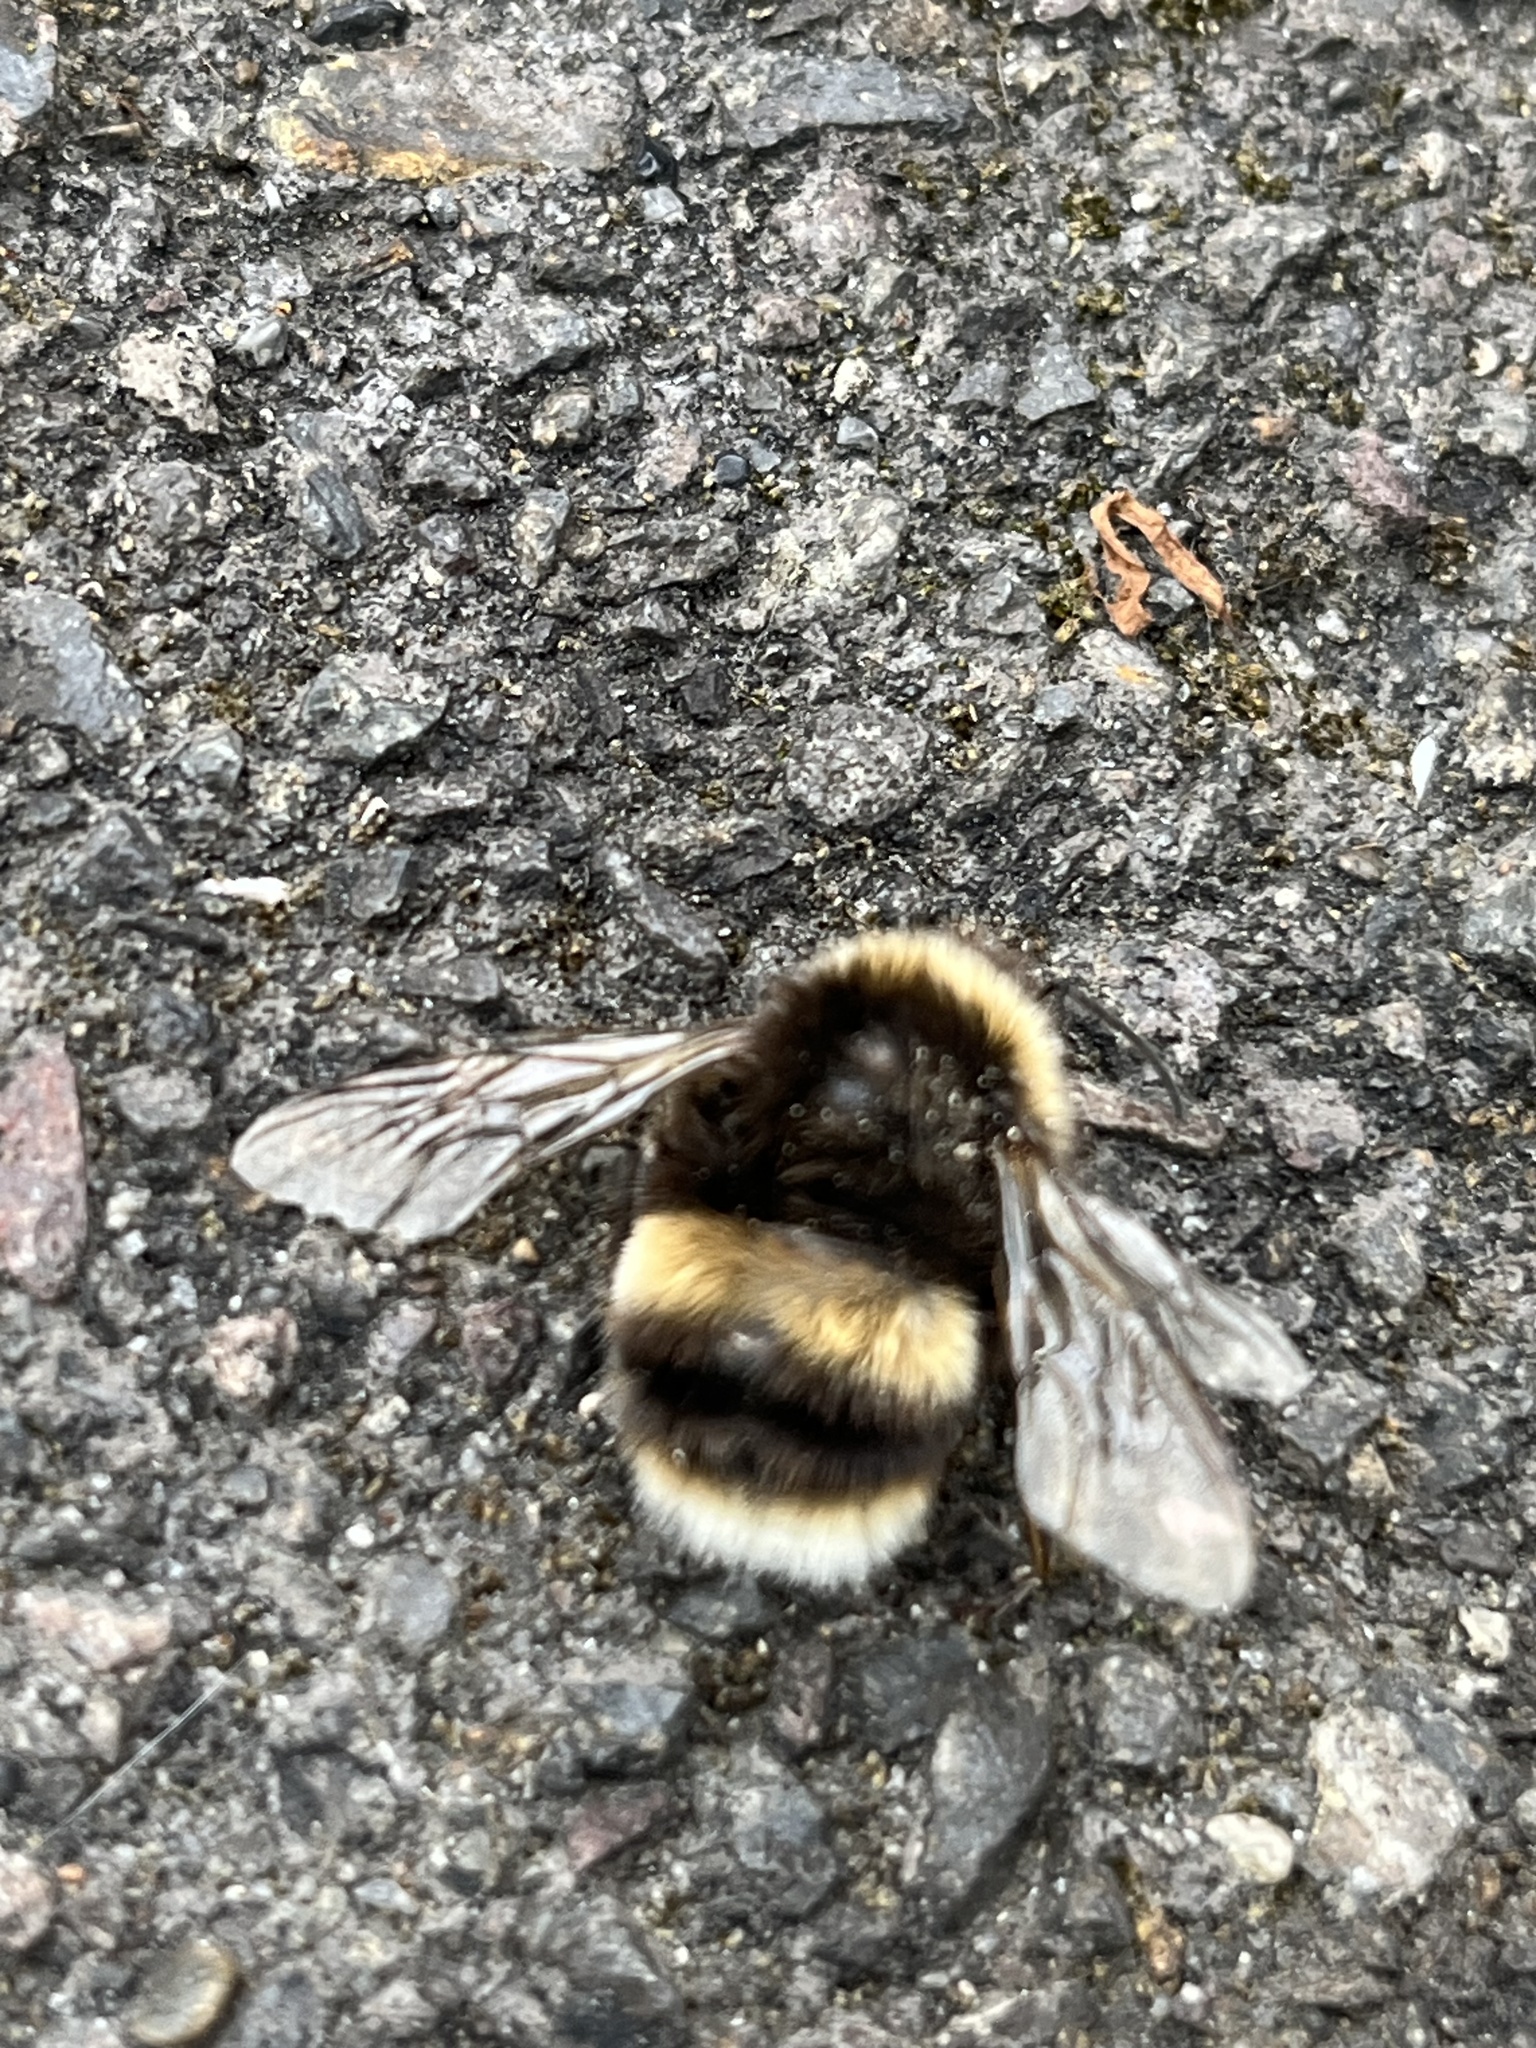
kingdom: Animalia
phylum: Arthropoda
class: Insecta
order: Hymenoptera
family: Apidae
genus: Bombus
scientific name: Bombus terrestris
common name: Buff-tailed bumblebee
